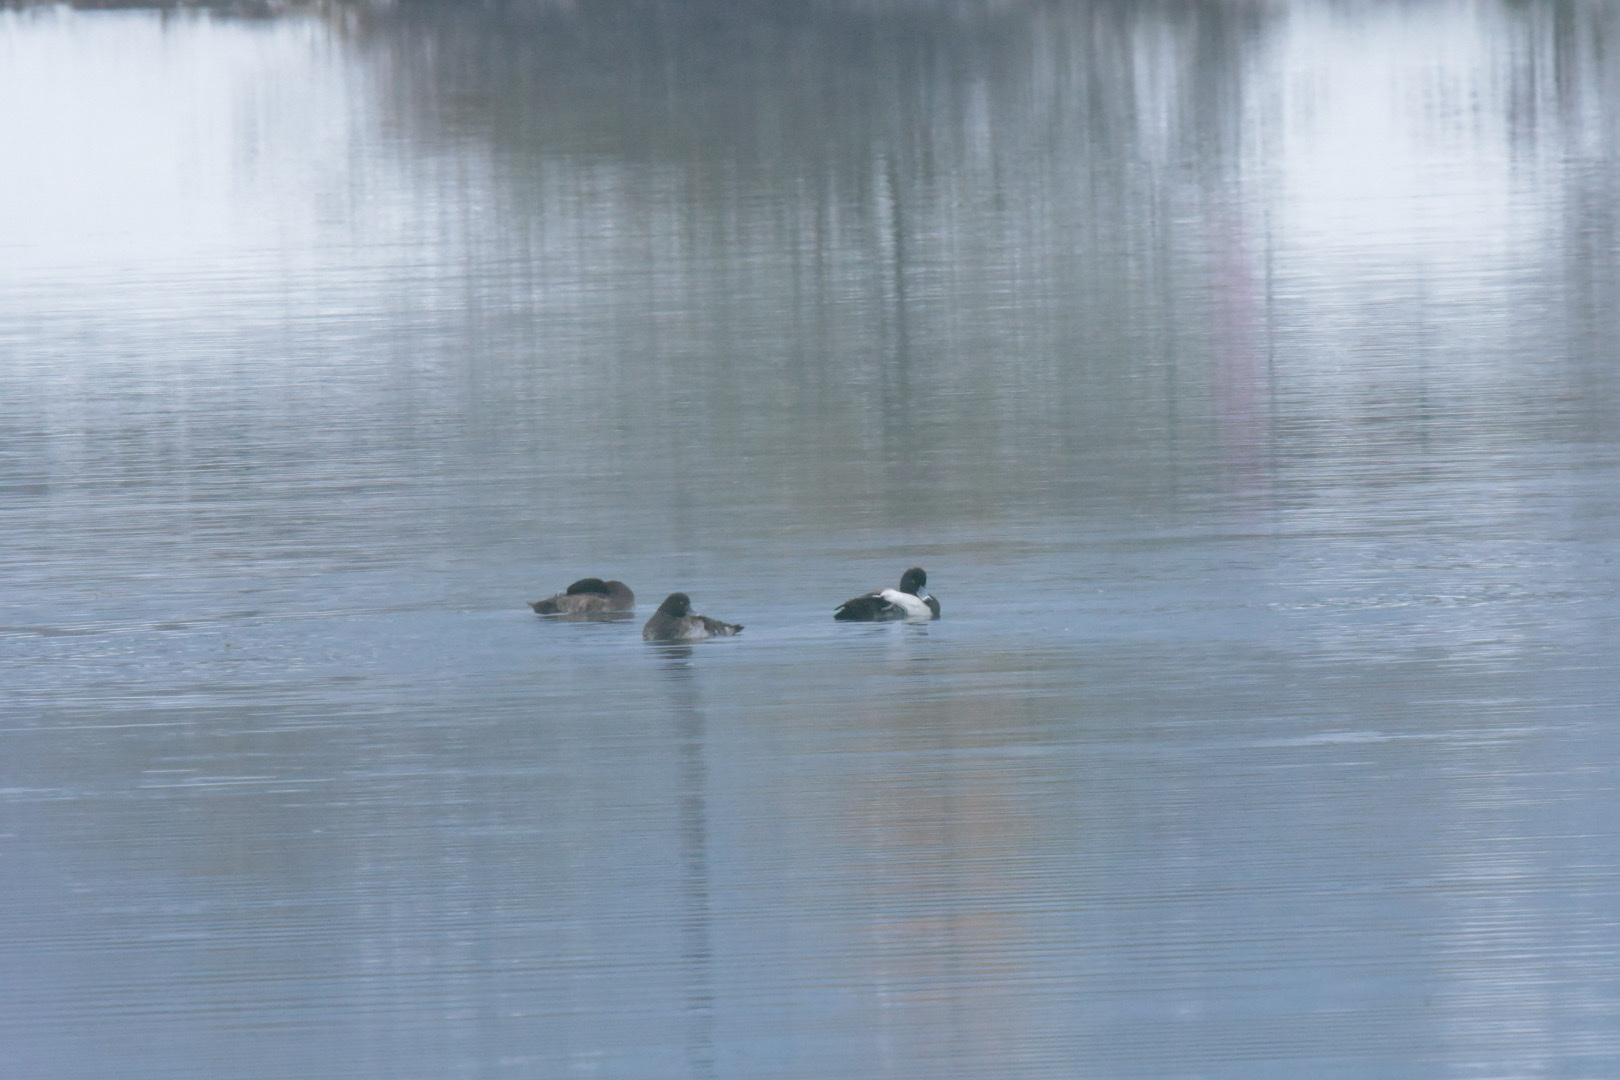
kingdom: Animalia
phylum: Chordata
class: Aves
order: Anseriformes
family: Anatidae
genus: Aythya
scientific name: Aythya fuligula
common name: Tufted duck
